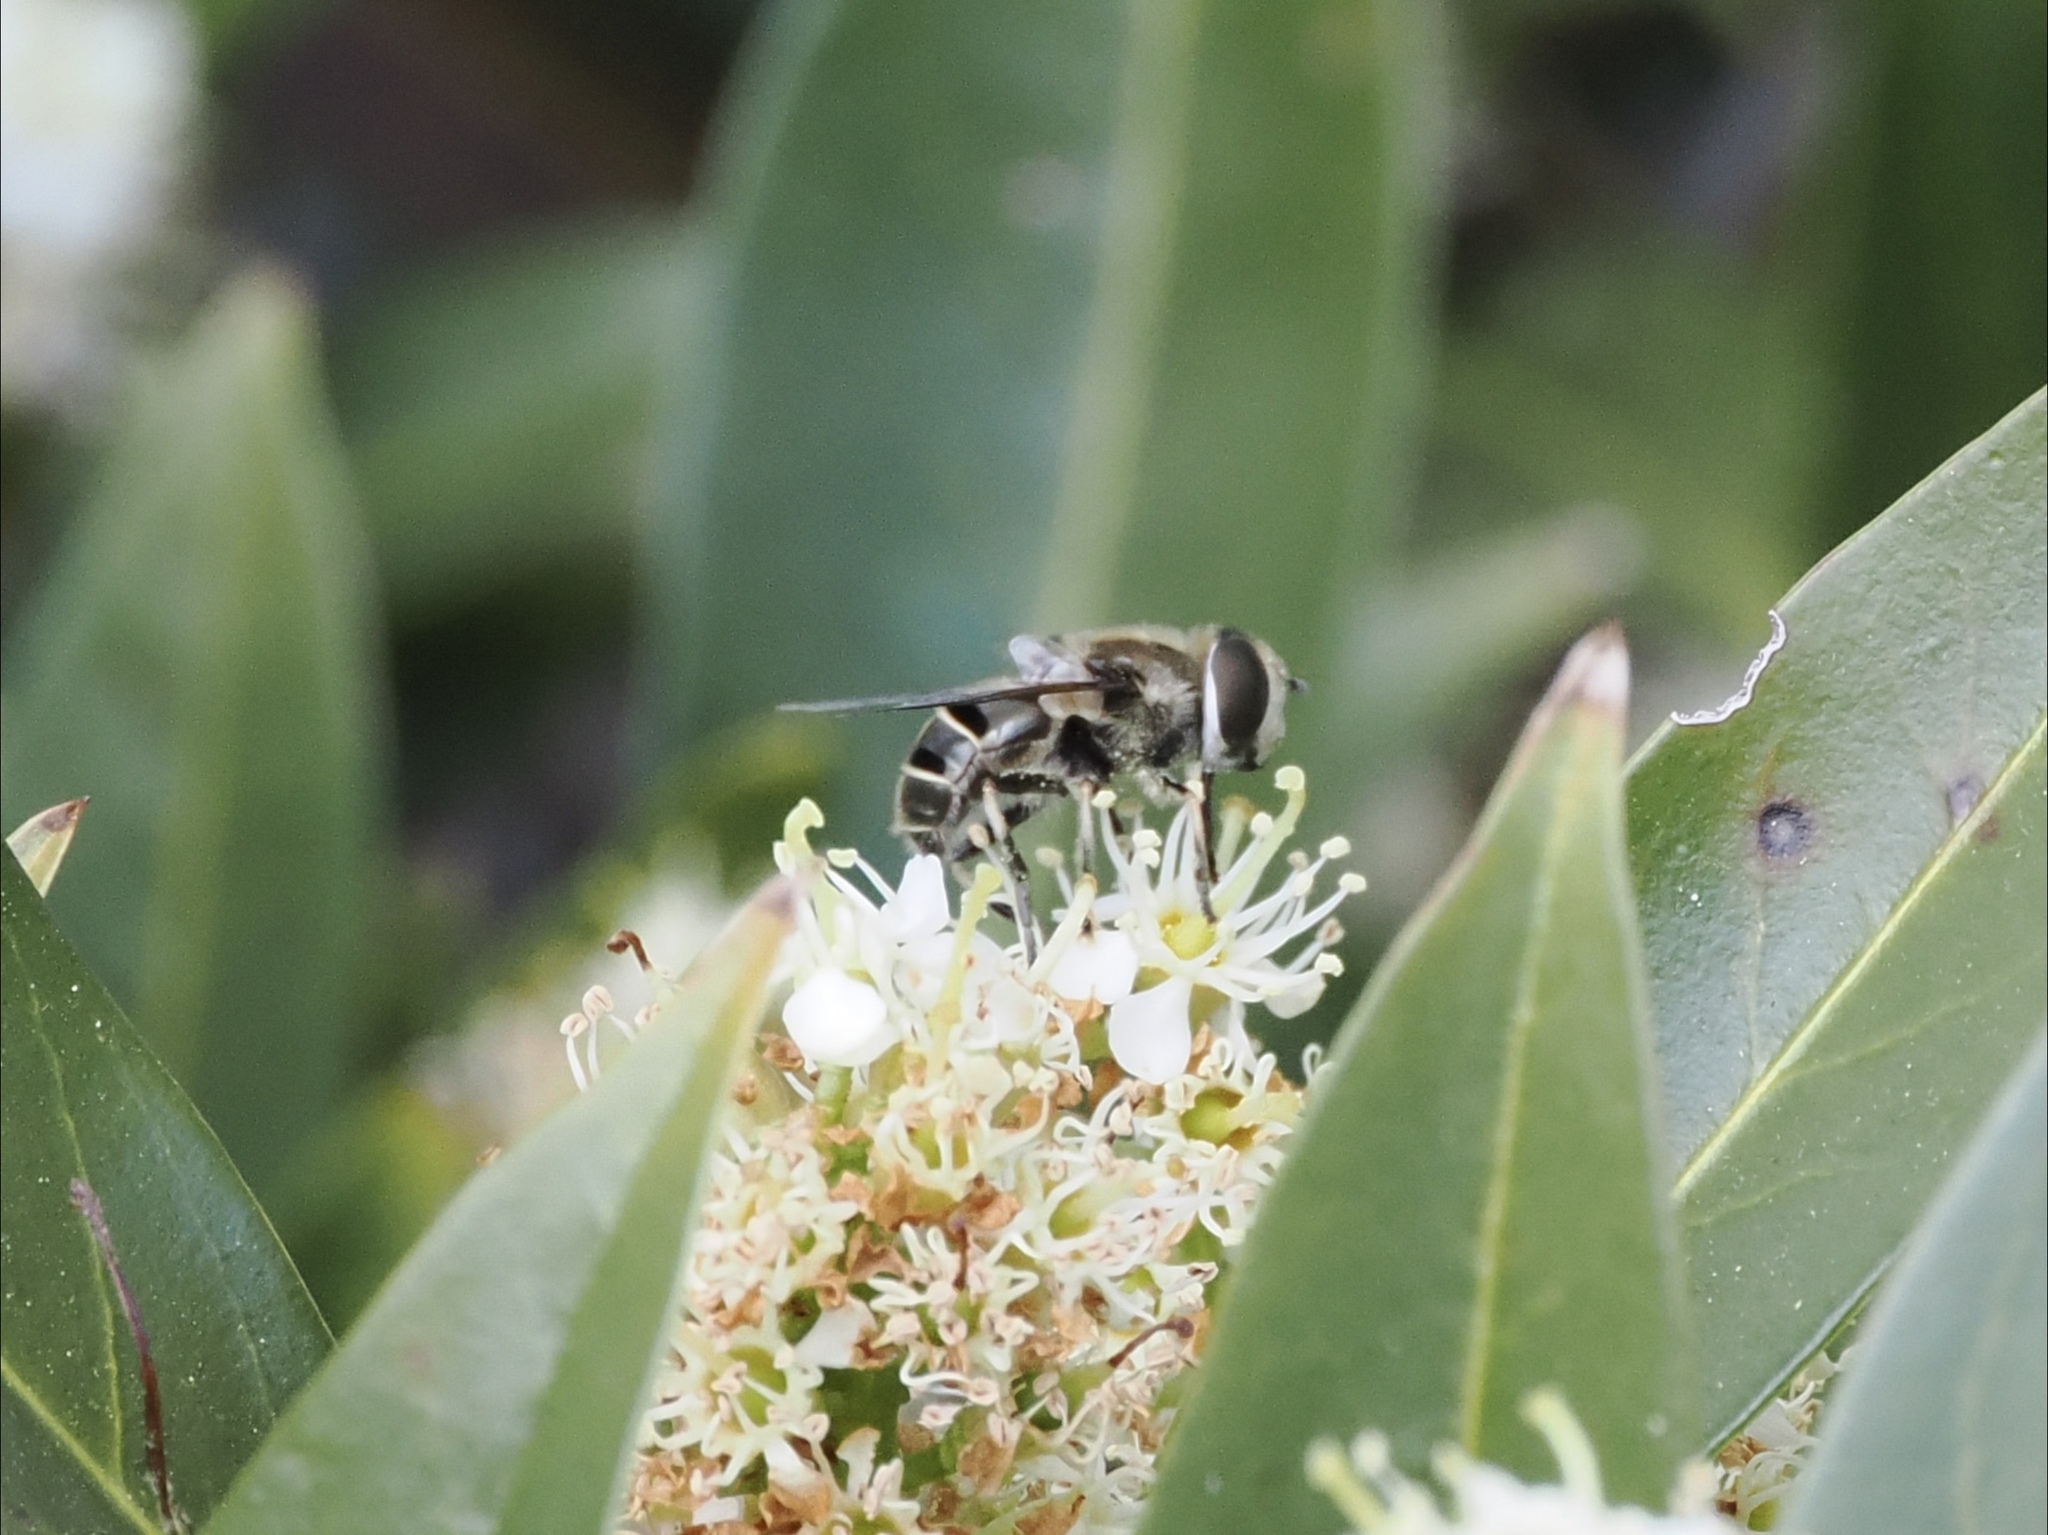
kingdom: Animalia
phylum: Arthropoda
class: Insecta
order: Diptera
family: Syrphidae
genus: Eristalis
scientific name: Eristalis dimidiata
